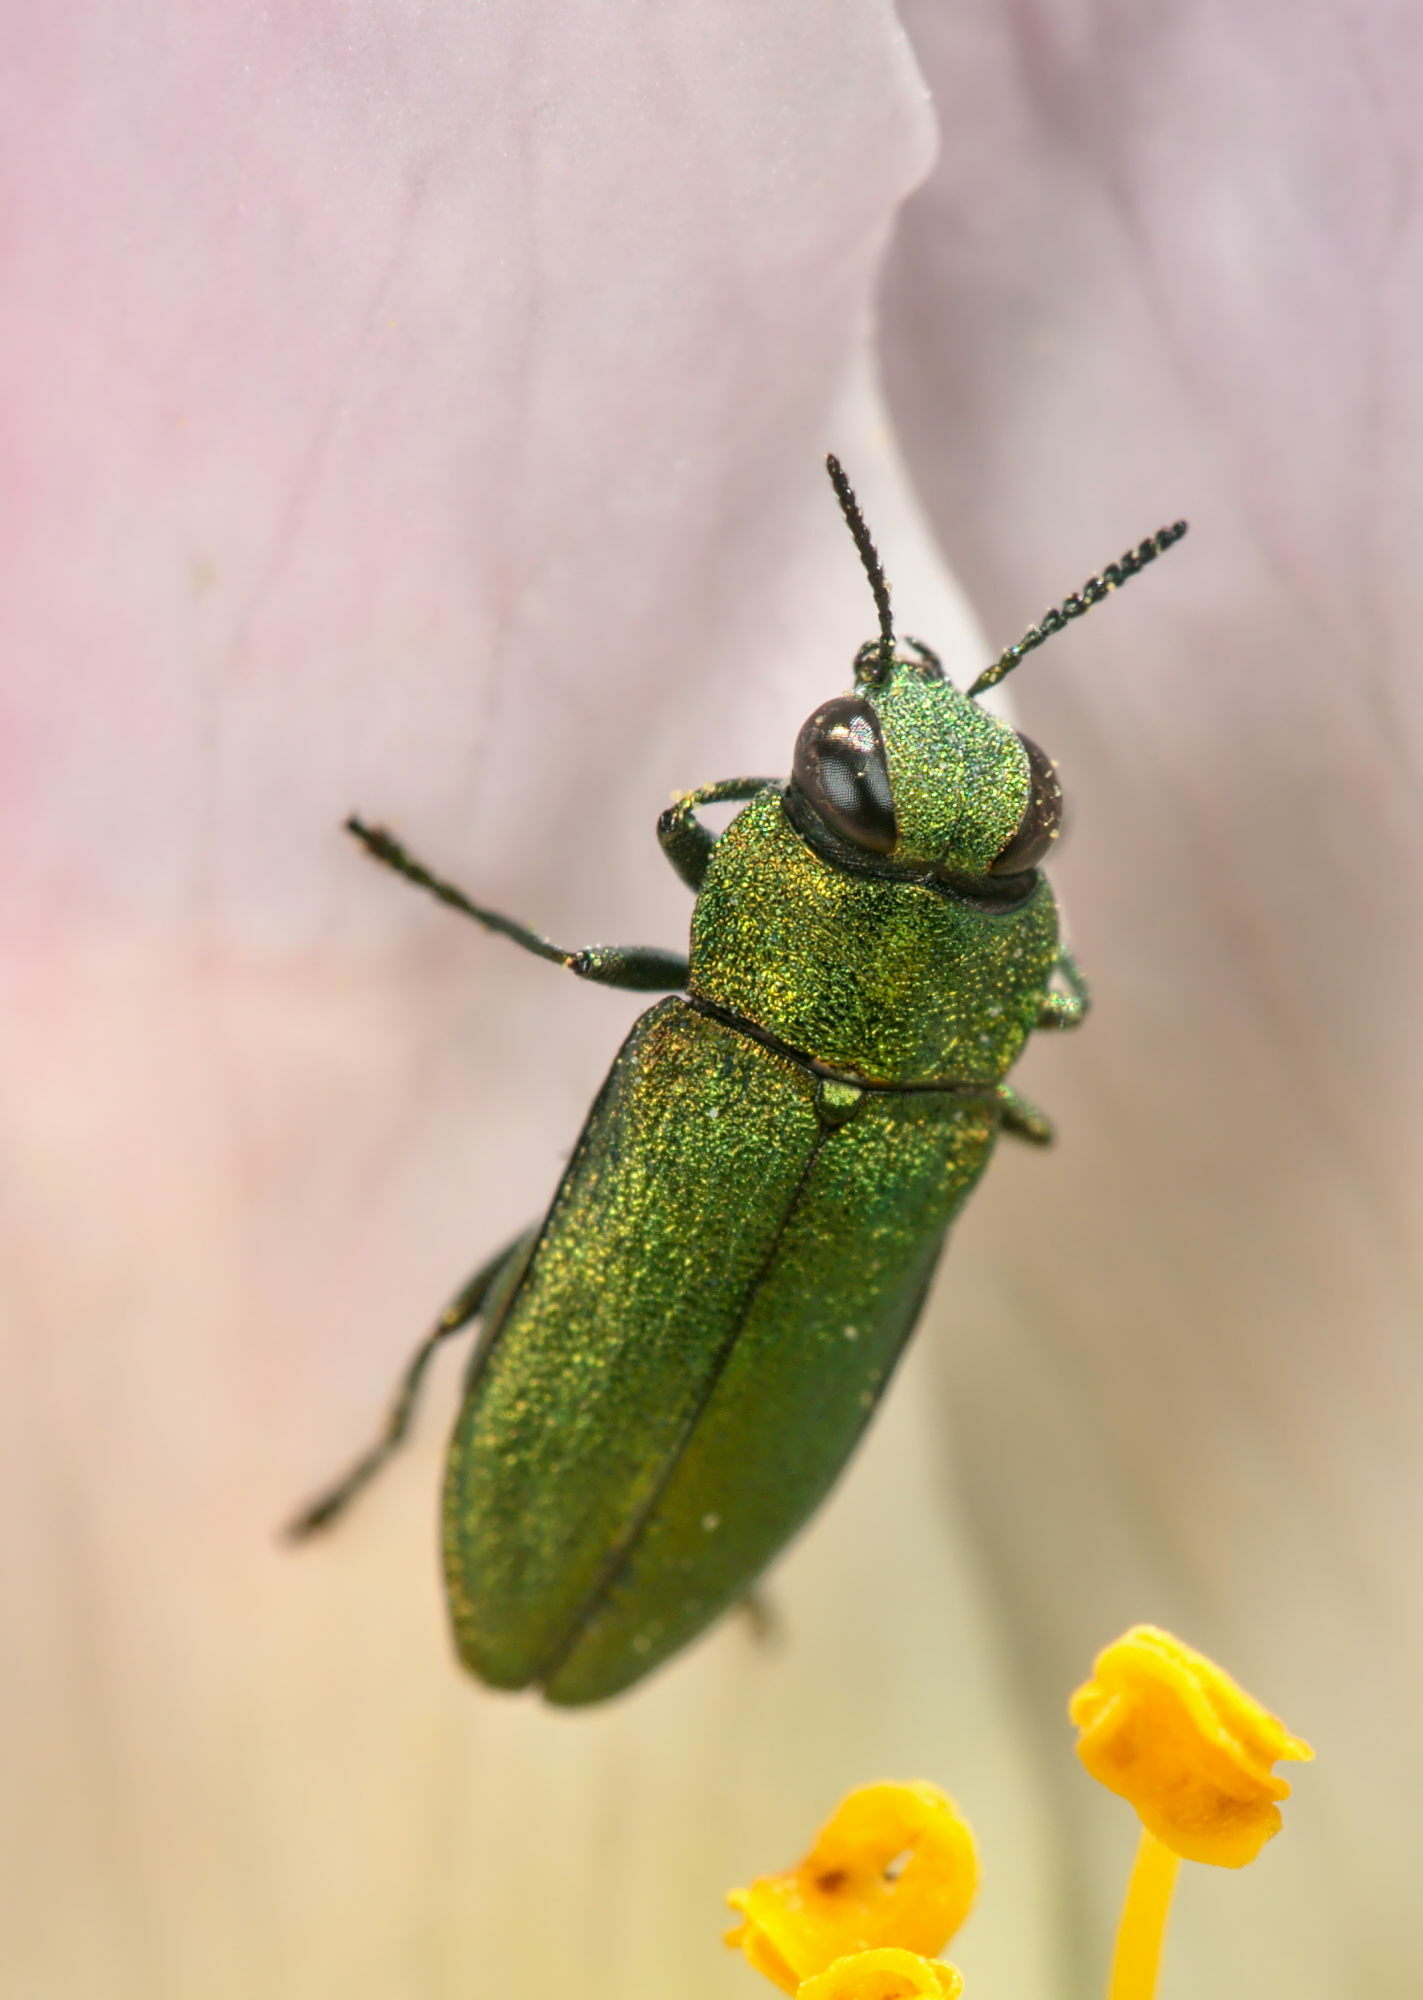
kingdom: Animalia
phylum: Arthropoda
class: Insecta
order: Coleoptera
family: Buprestidae
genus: Anthaxia
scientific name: Anthaxia nitidula
